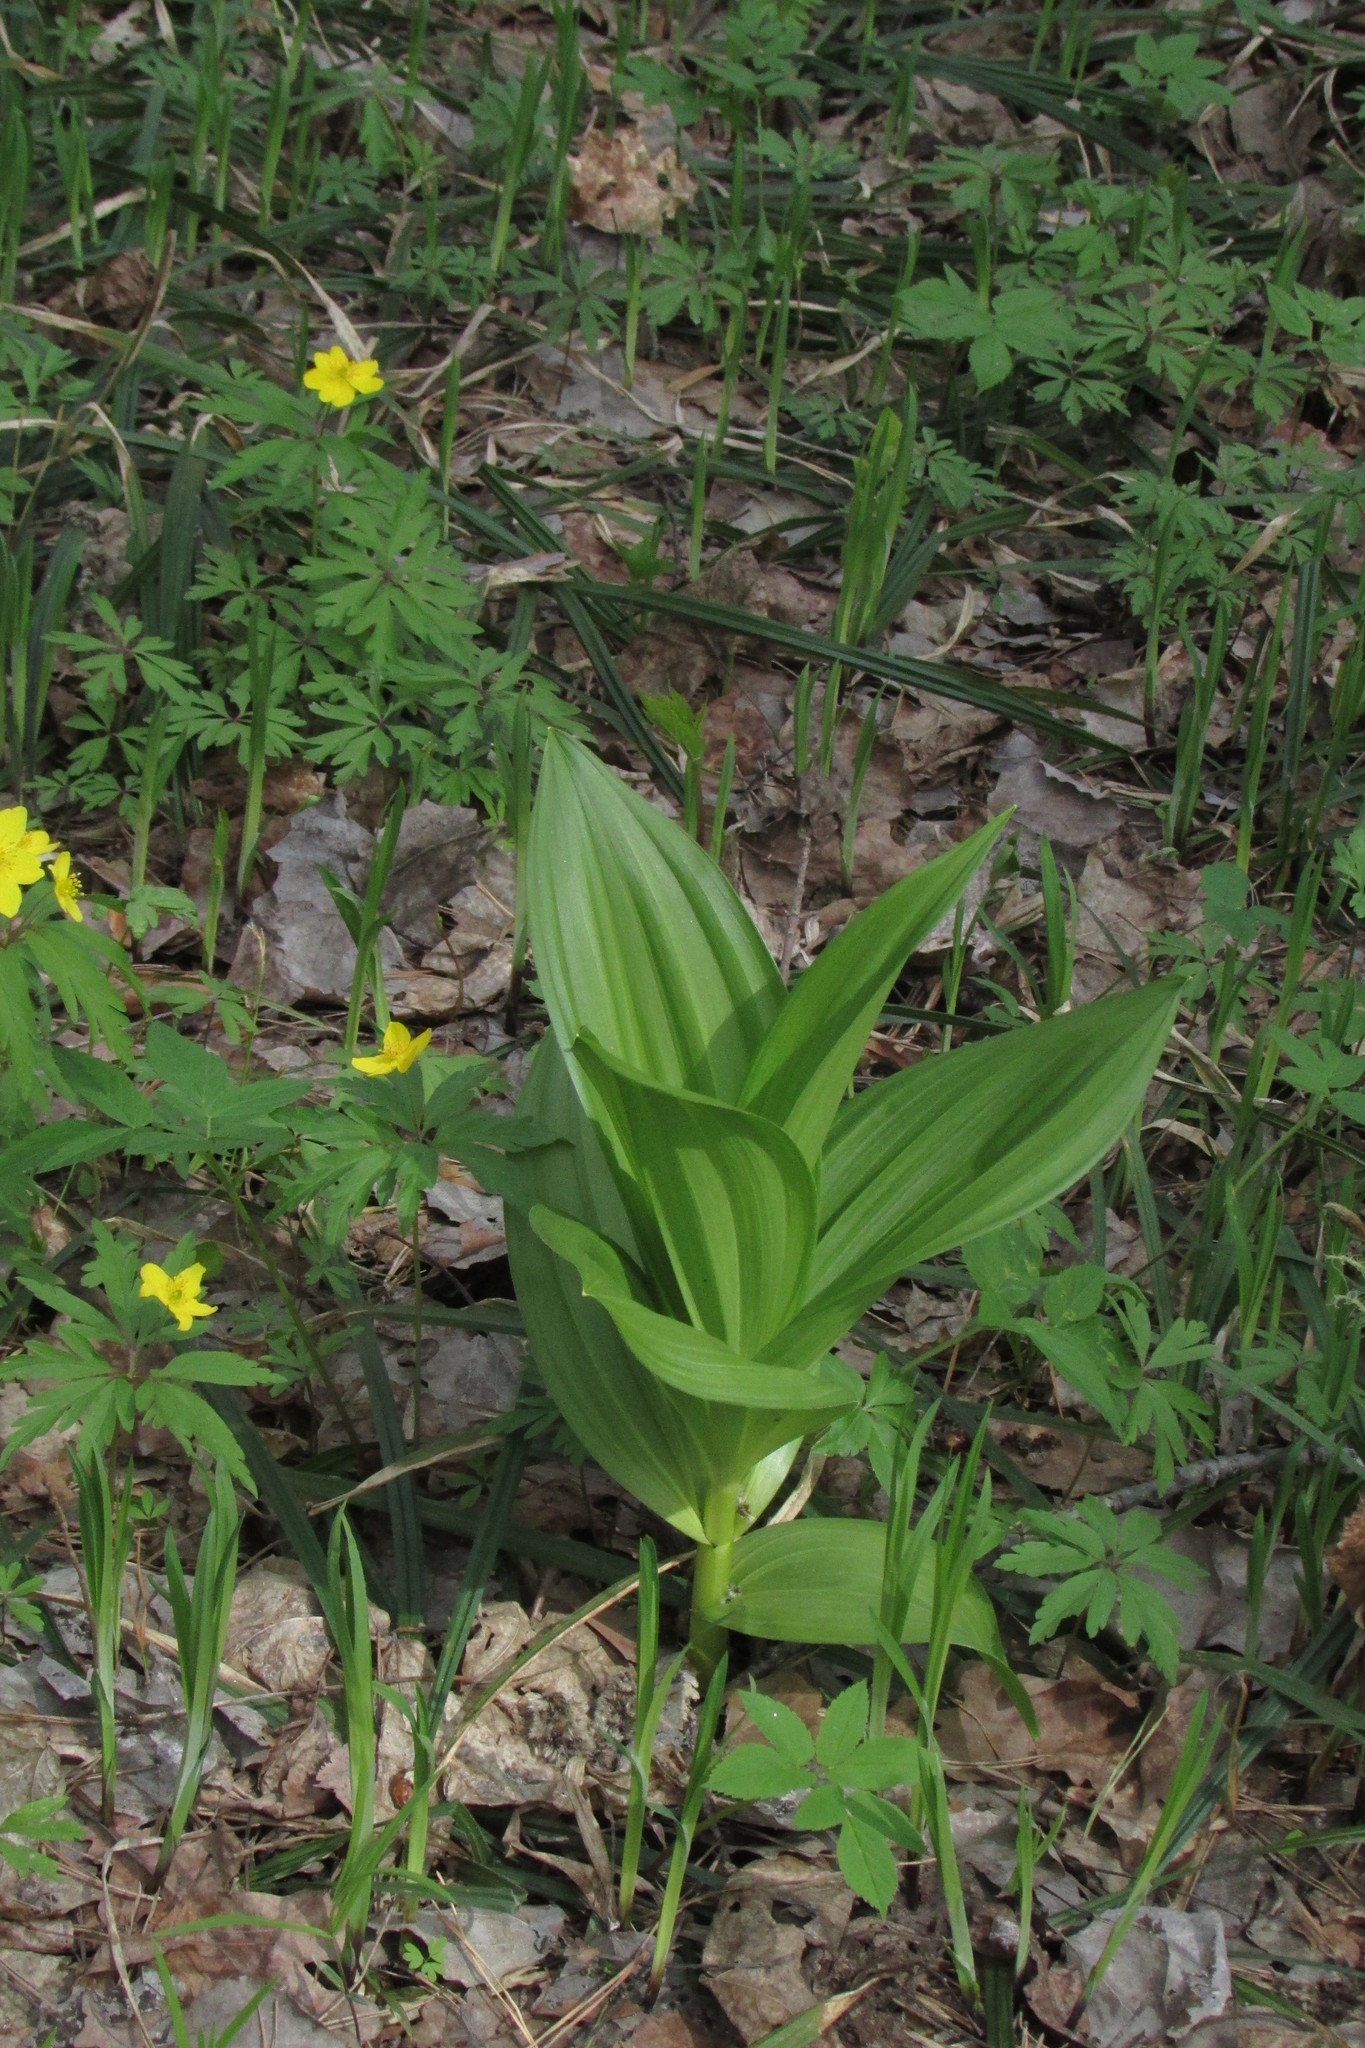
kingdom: Plantae
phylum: Tracheophyta
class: Liliopsida
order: Liliales
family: Melanthiaceae
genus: Veratrum
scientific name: Veratrum lobelianum
